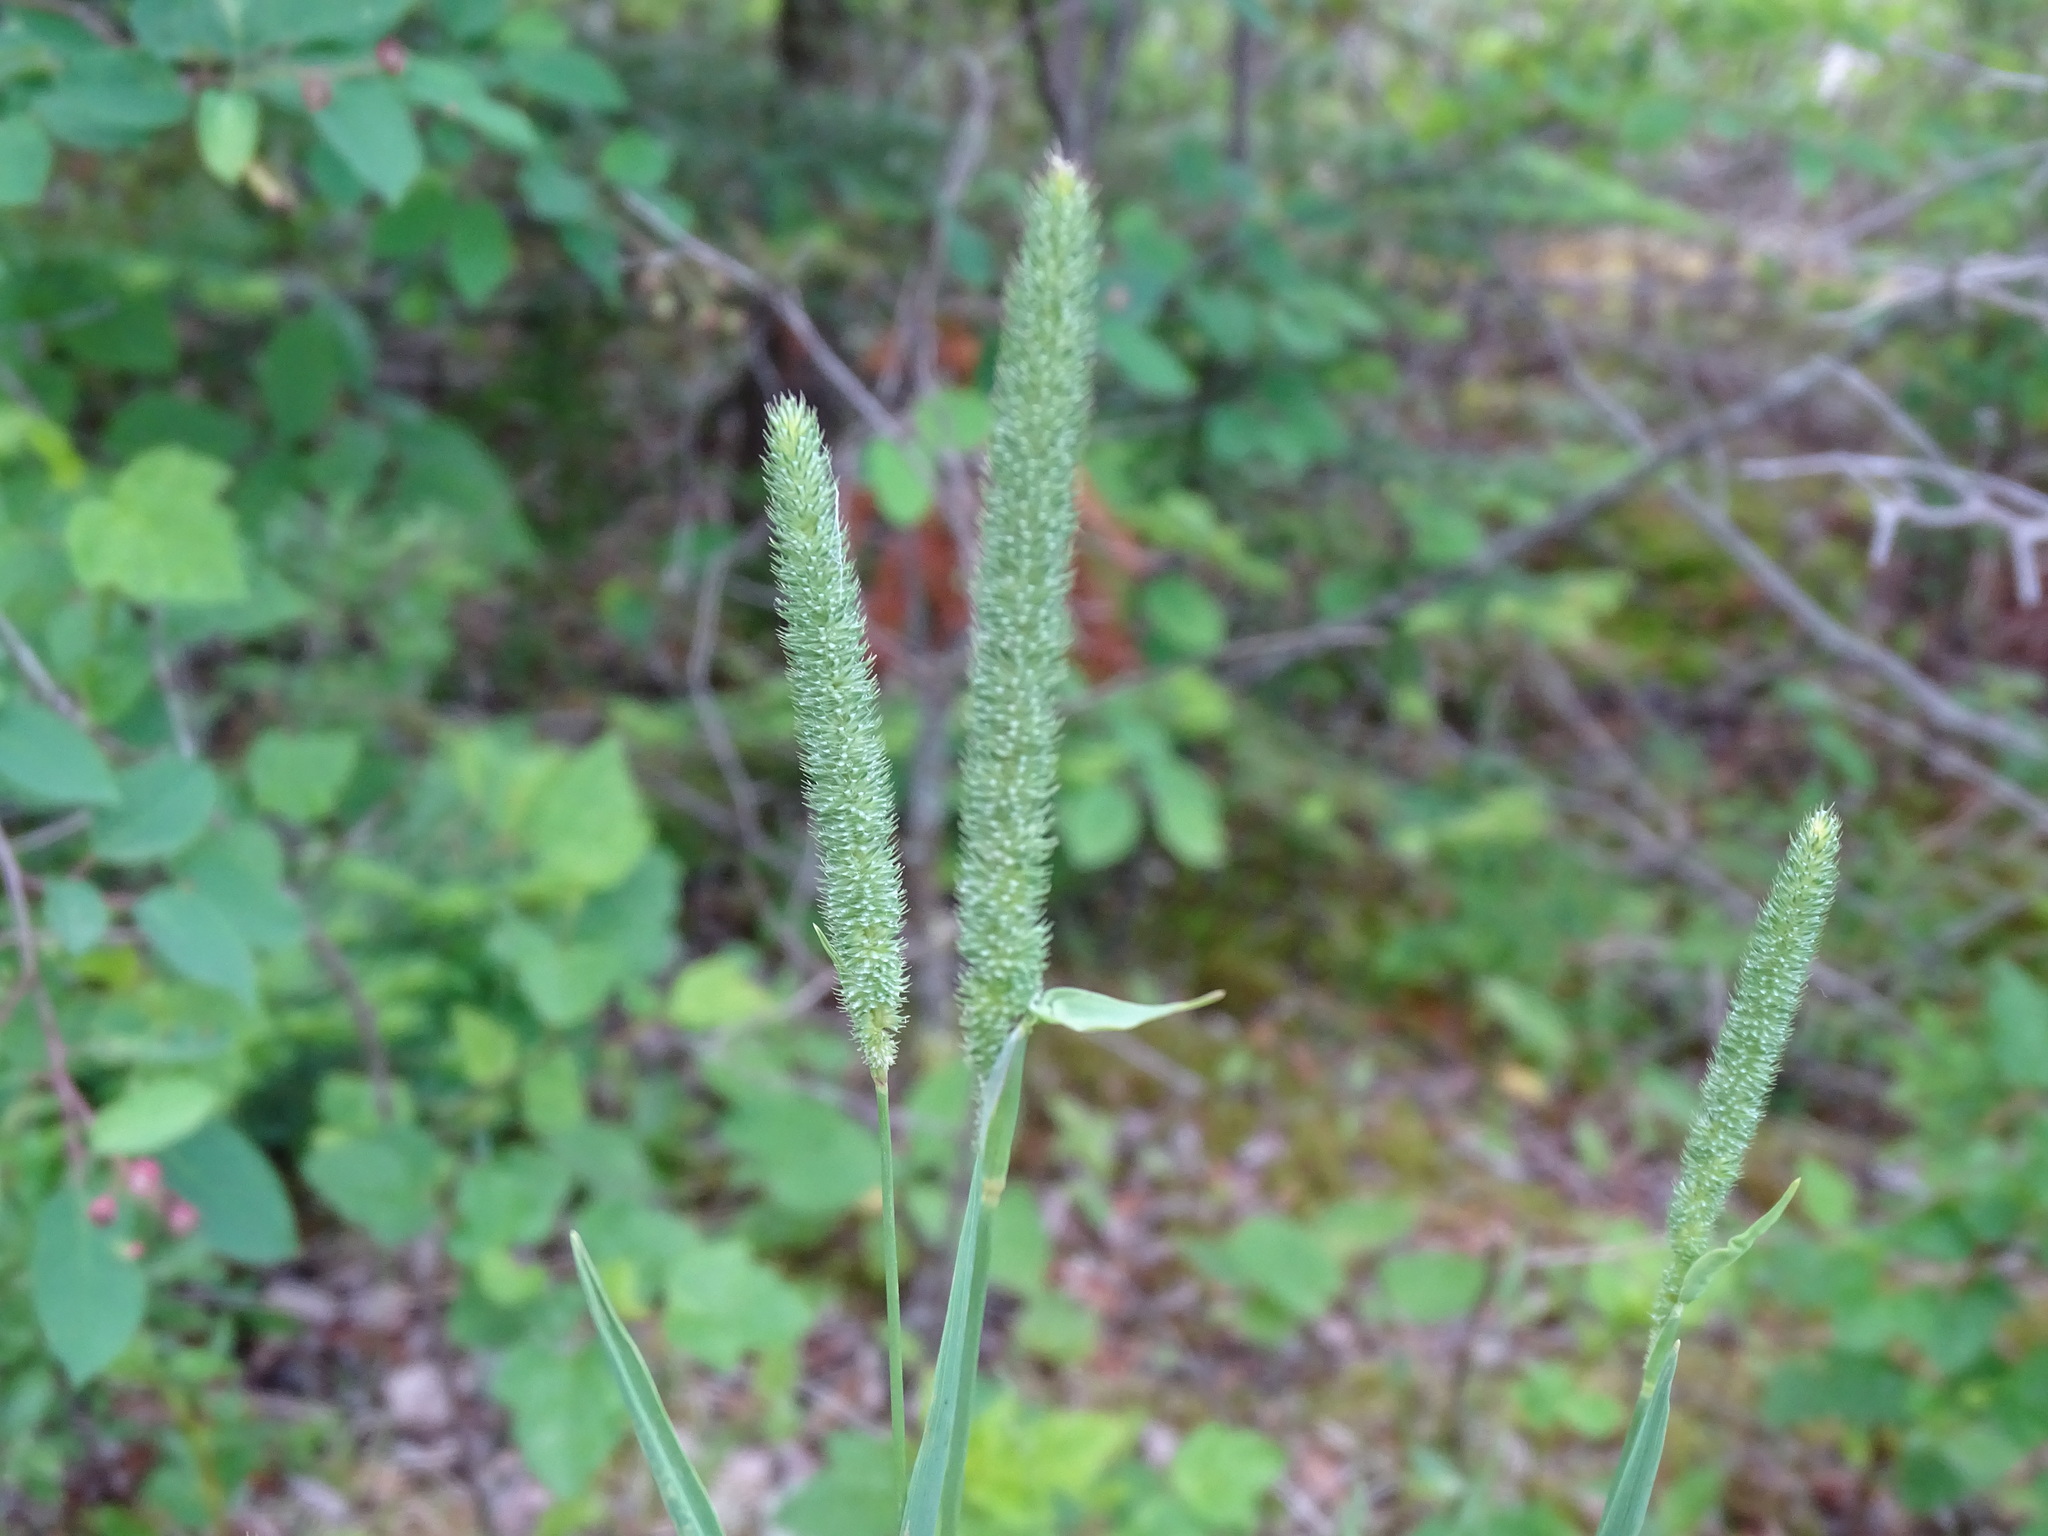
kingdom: Plantae
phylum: Tracheophyta
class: Liliopsida
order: Poales
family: Poaceae
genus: Phleum
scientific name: Phleum pratense
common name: Timothy grass
